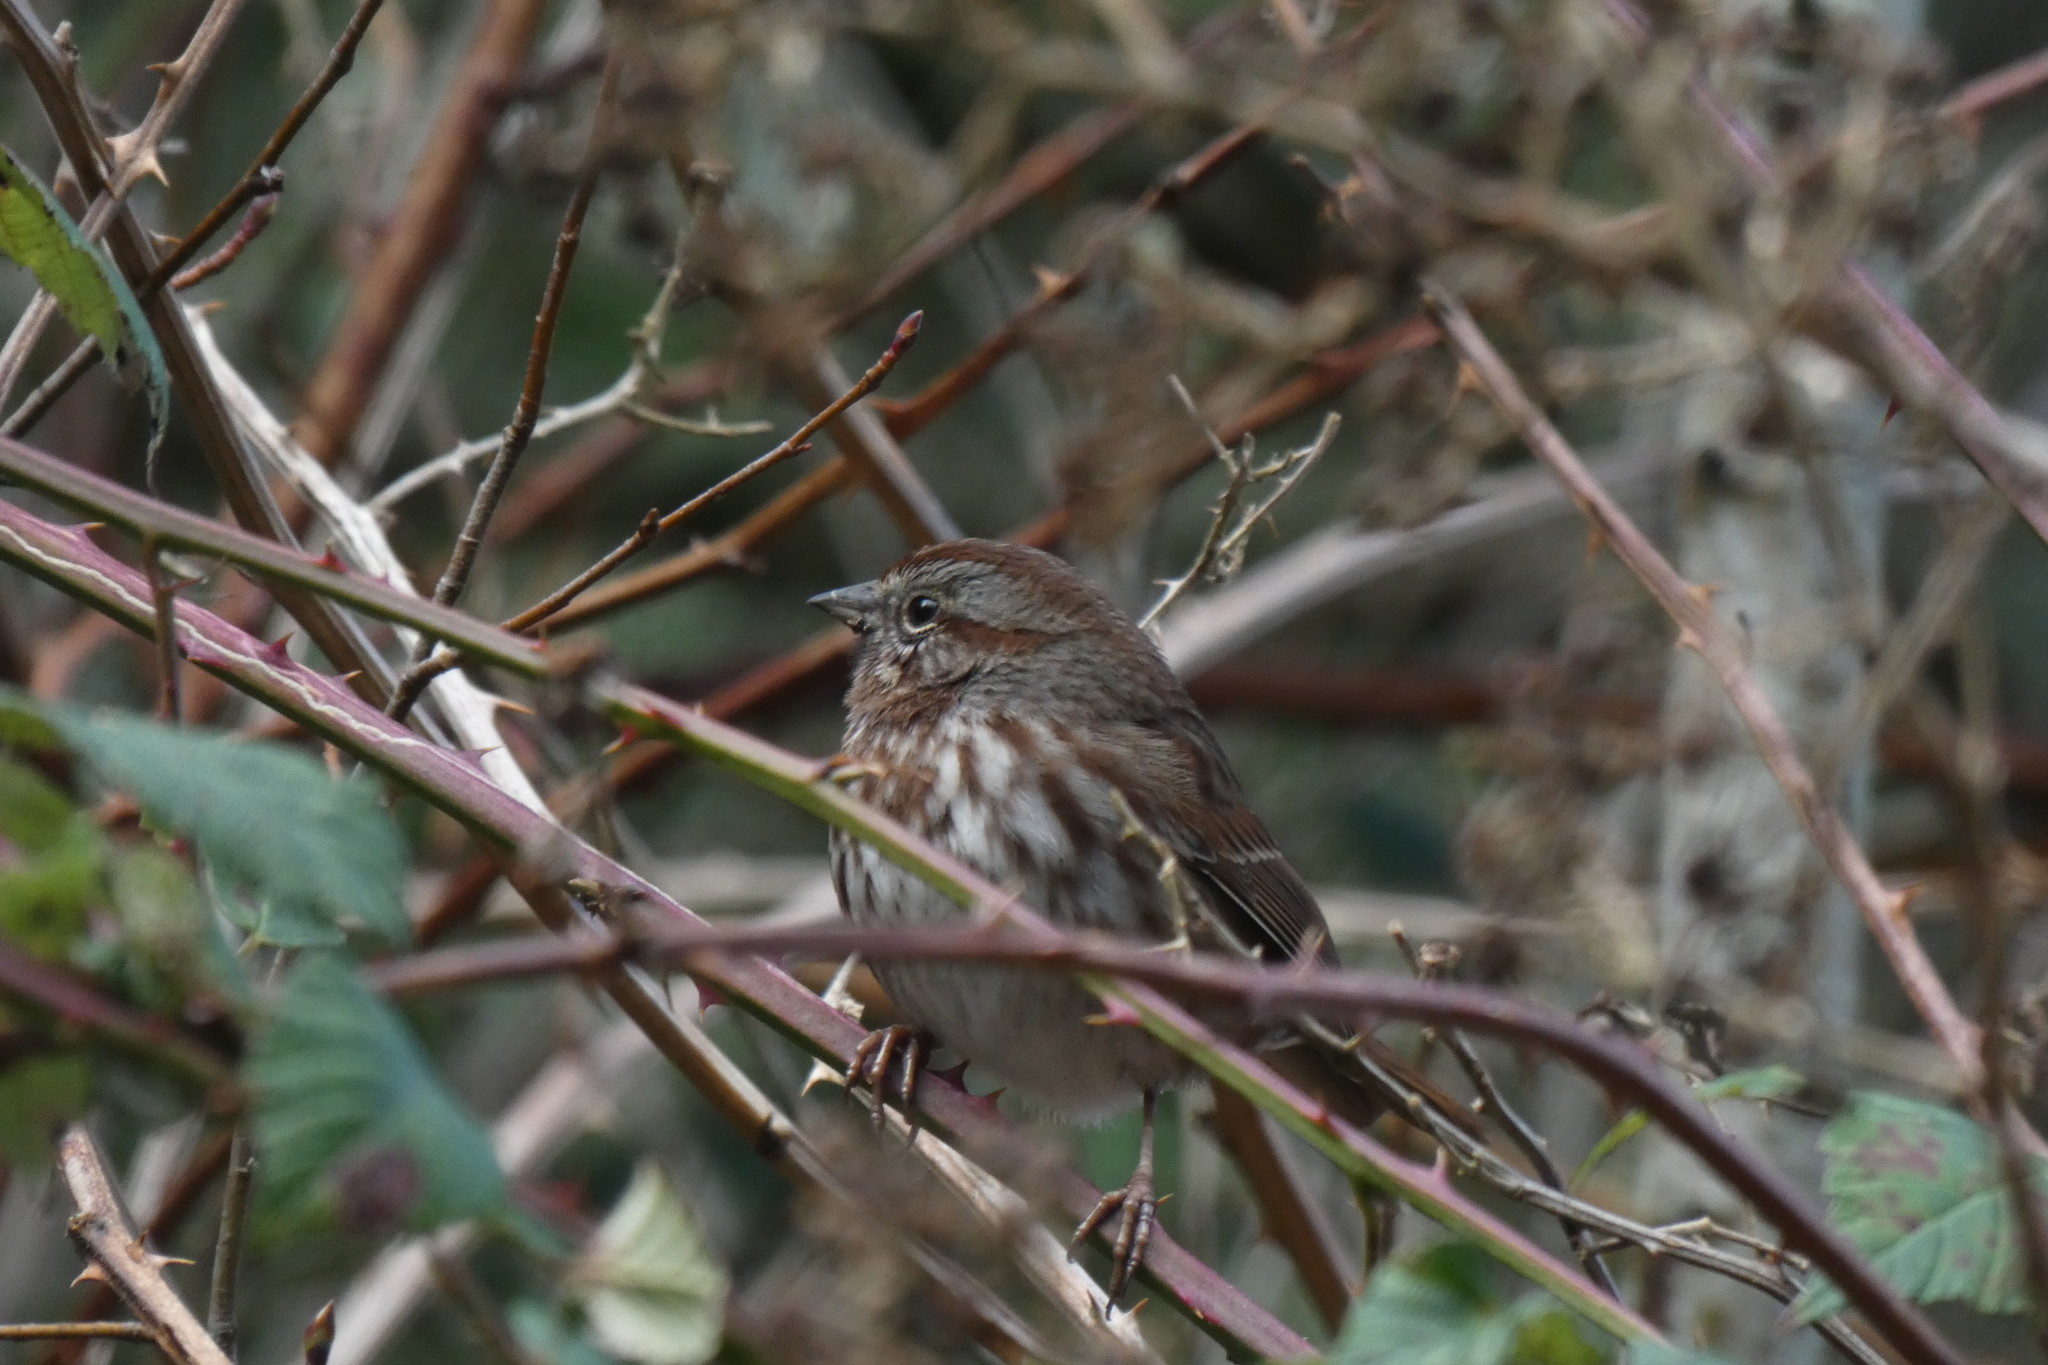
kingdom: Animalia
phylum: Chordata
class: Aves
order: Passeriformes
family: Passerellidae
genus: Melospiza
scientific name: Melospiza melodia
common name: Song sparrow
